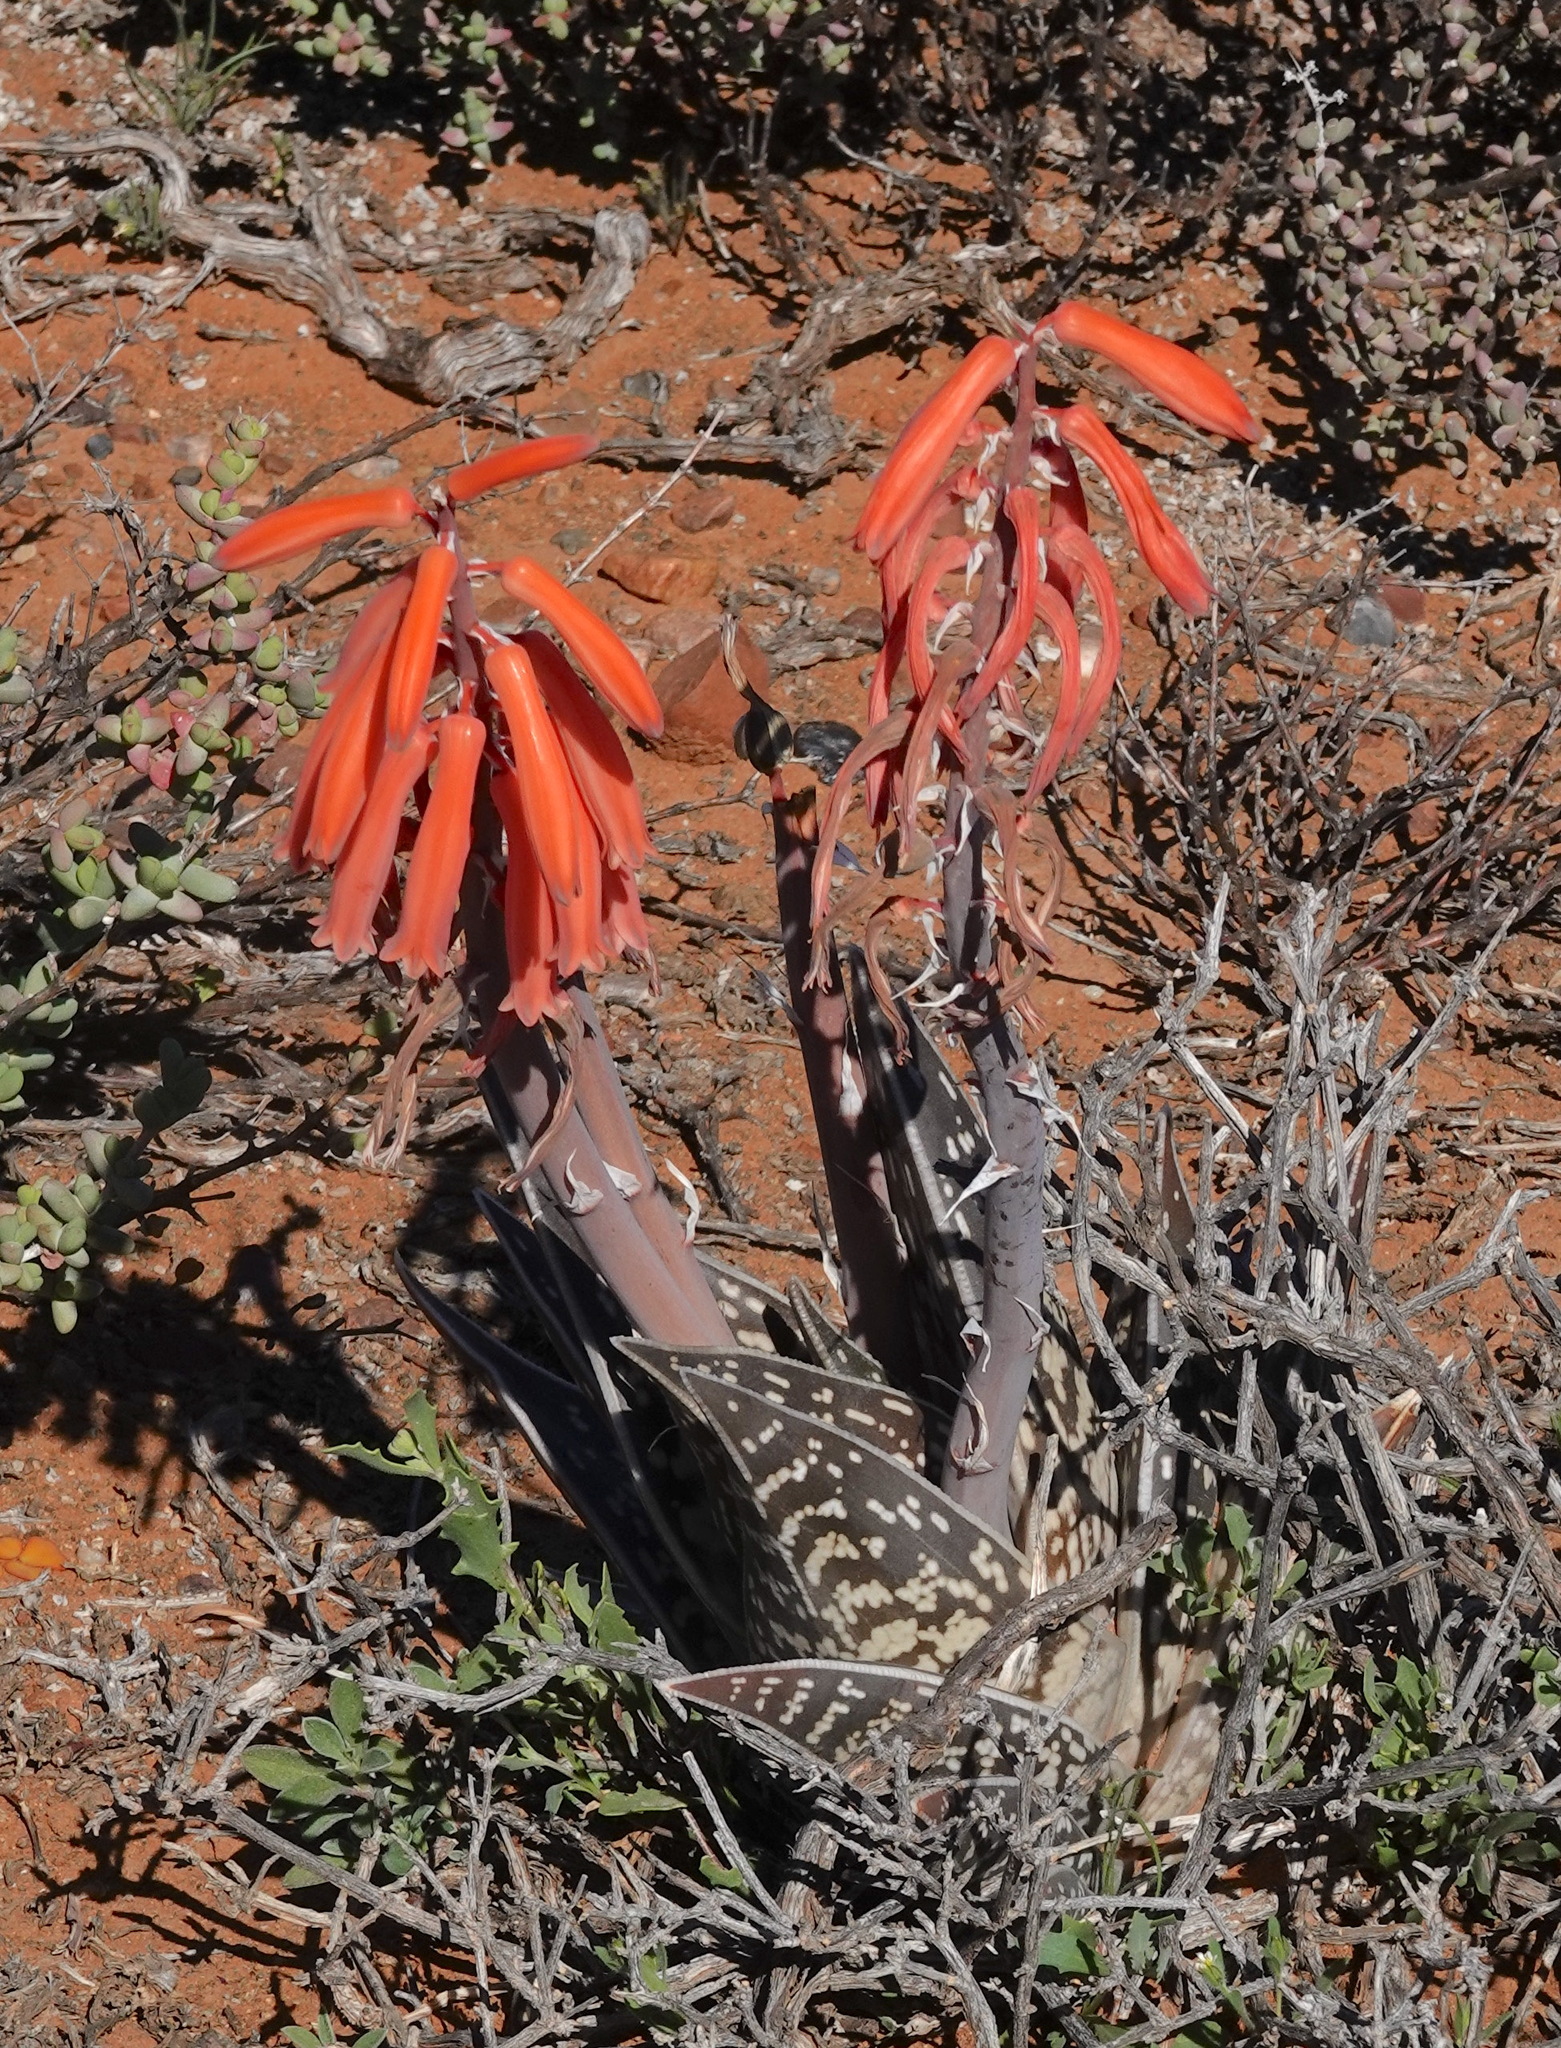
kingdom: Plantae
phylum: Tracheophyta
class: Liliopsida
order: Asparagales
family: Asphodelaceae
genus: Gonialoe
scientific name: Gonialoe variegata
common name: Aloe variegata
